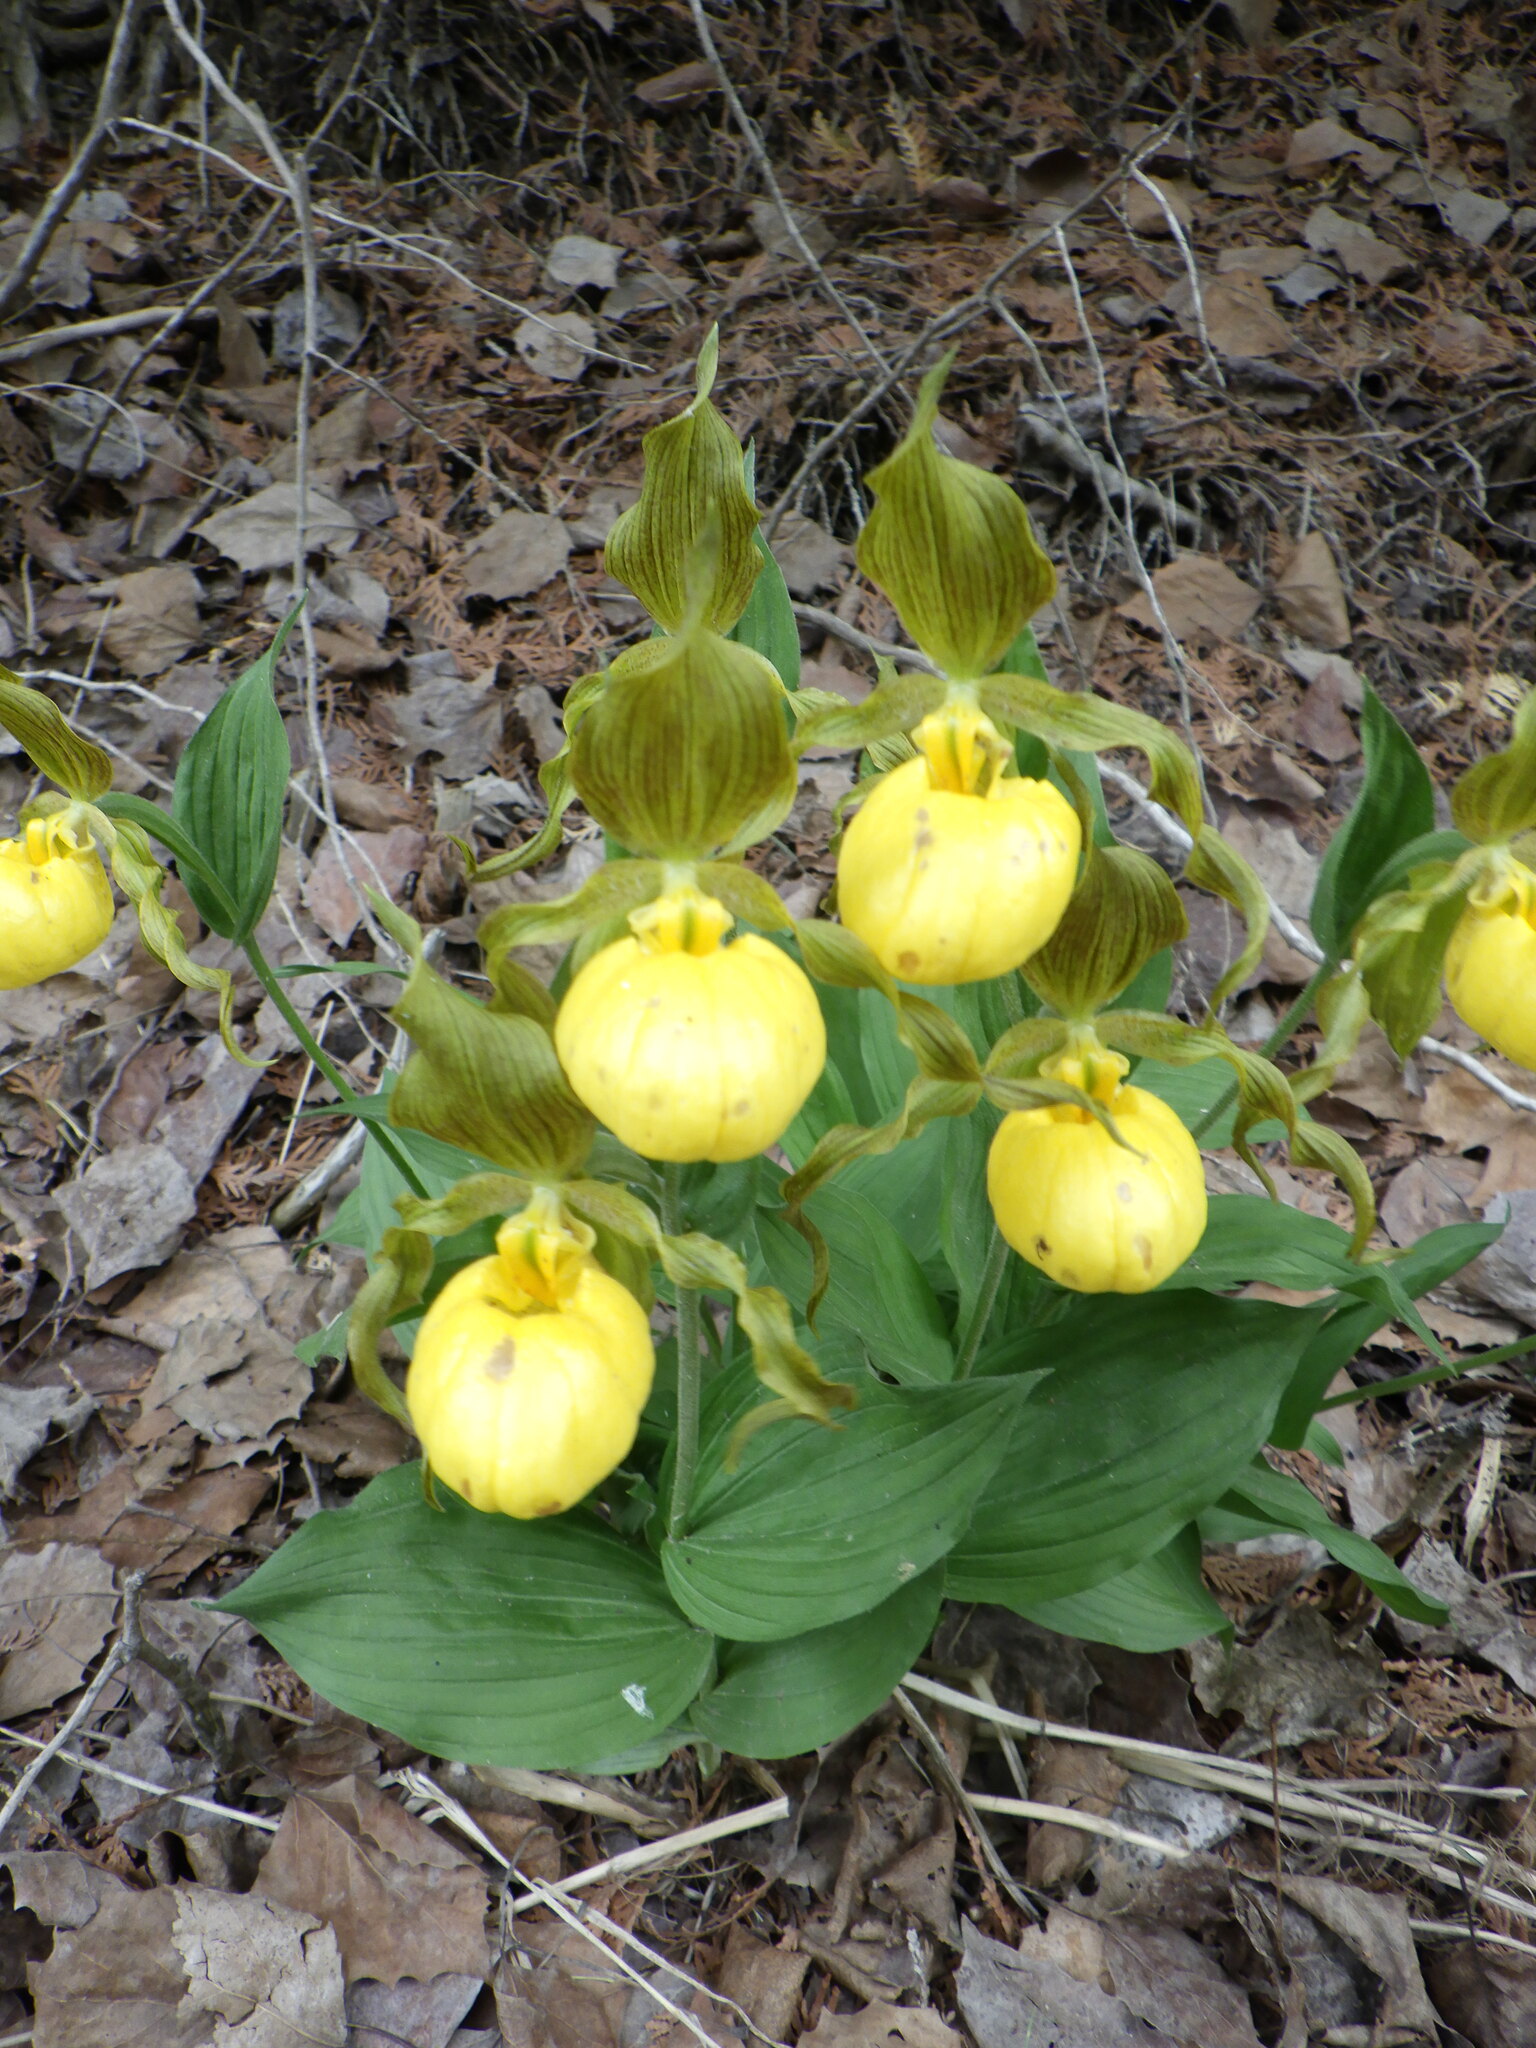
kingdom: Plantae
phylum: Tracheophyta
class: Liliopsida
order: Asparagales
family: Orchidaceae
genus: Cypripedium
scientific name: Cypripedium parviflorum
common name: American yellow lady's-slipper
